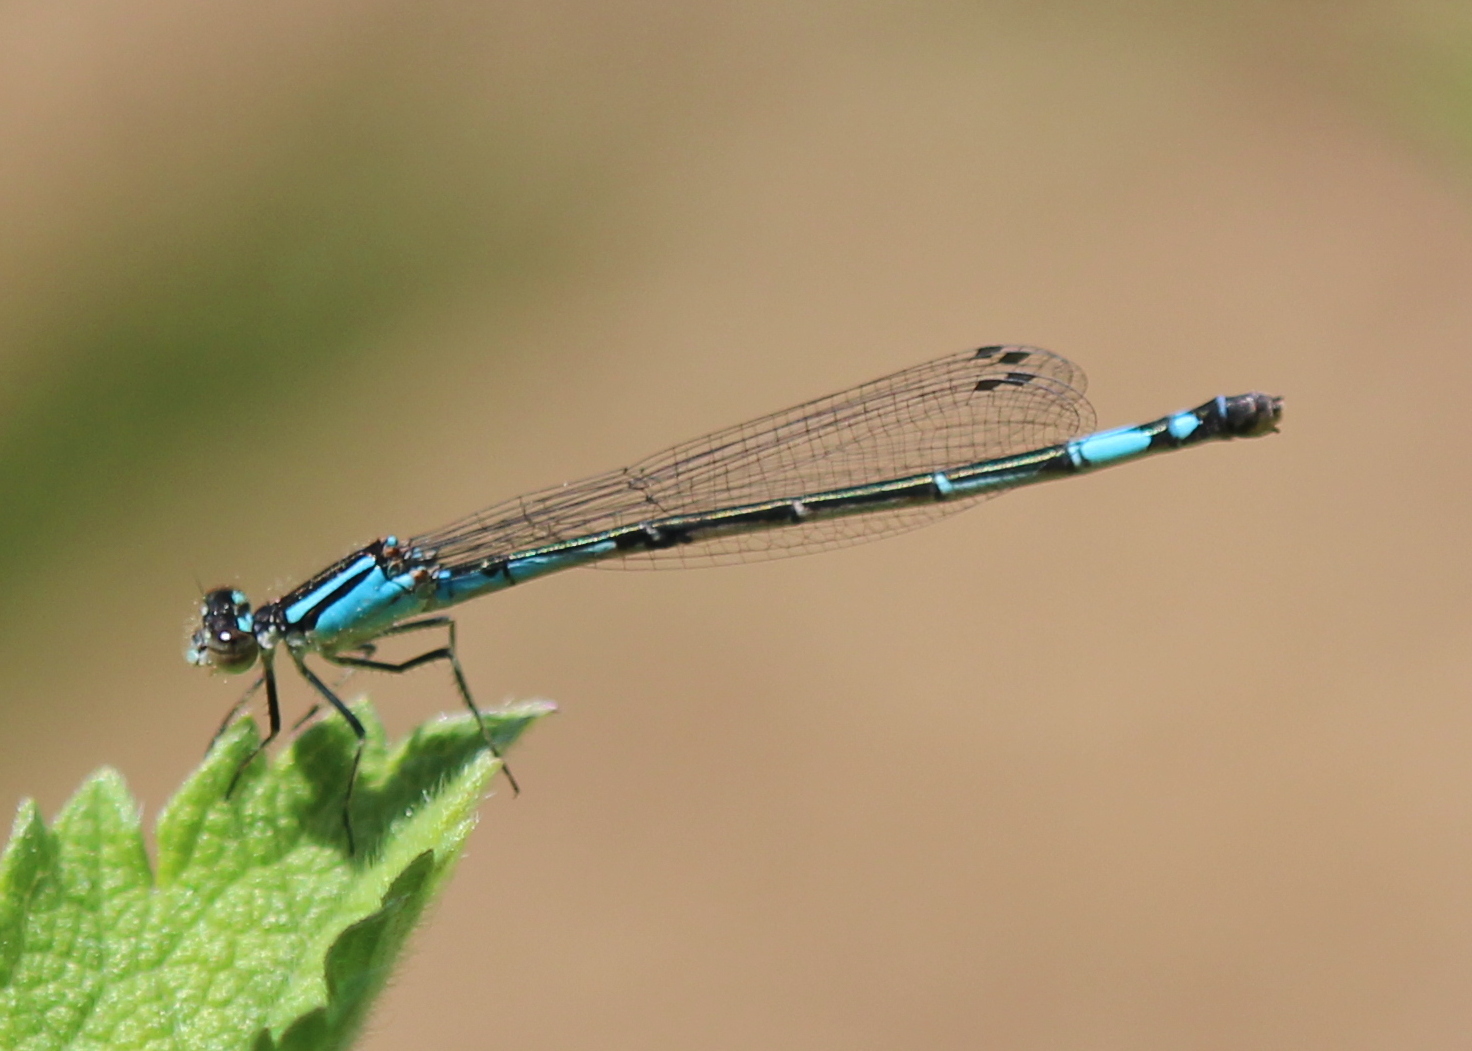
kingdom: Animalia
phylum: Arthropoda
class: Insecta
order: Odonata
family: Coenagrionidae
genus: Enallagma
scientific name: Enallagma aspersum
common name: Azure bluet
